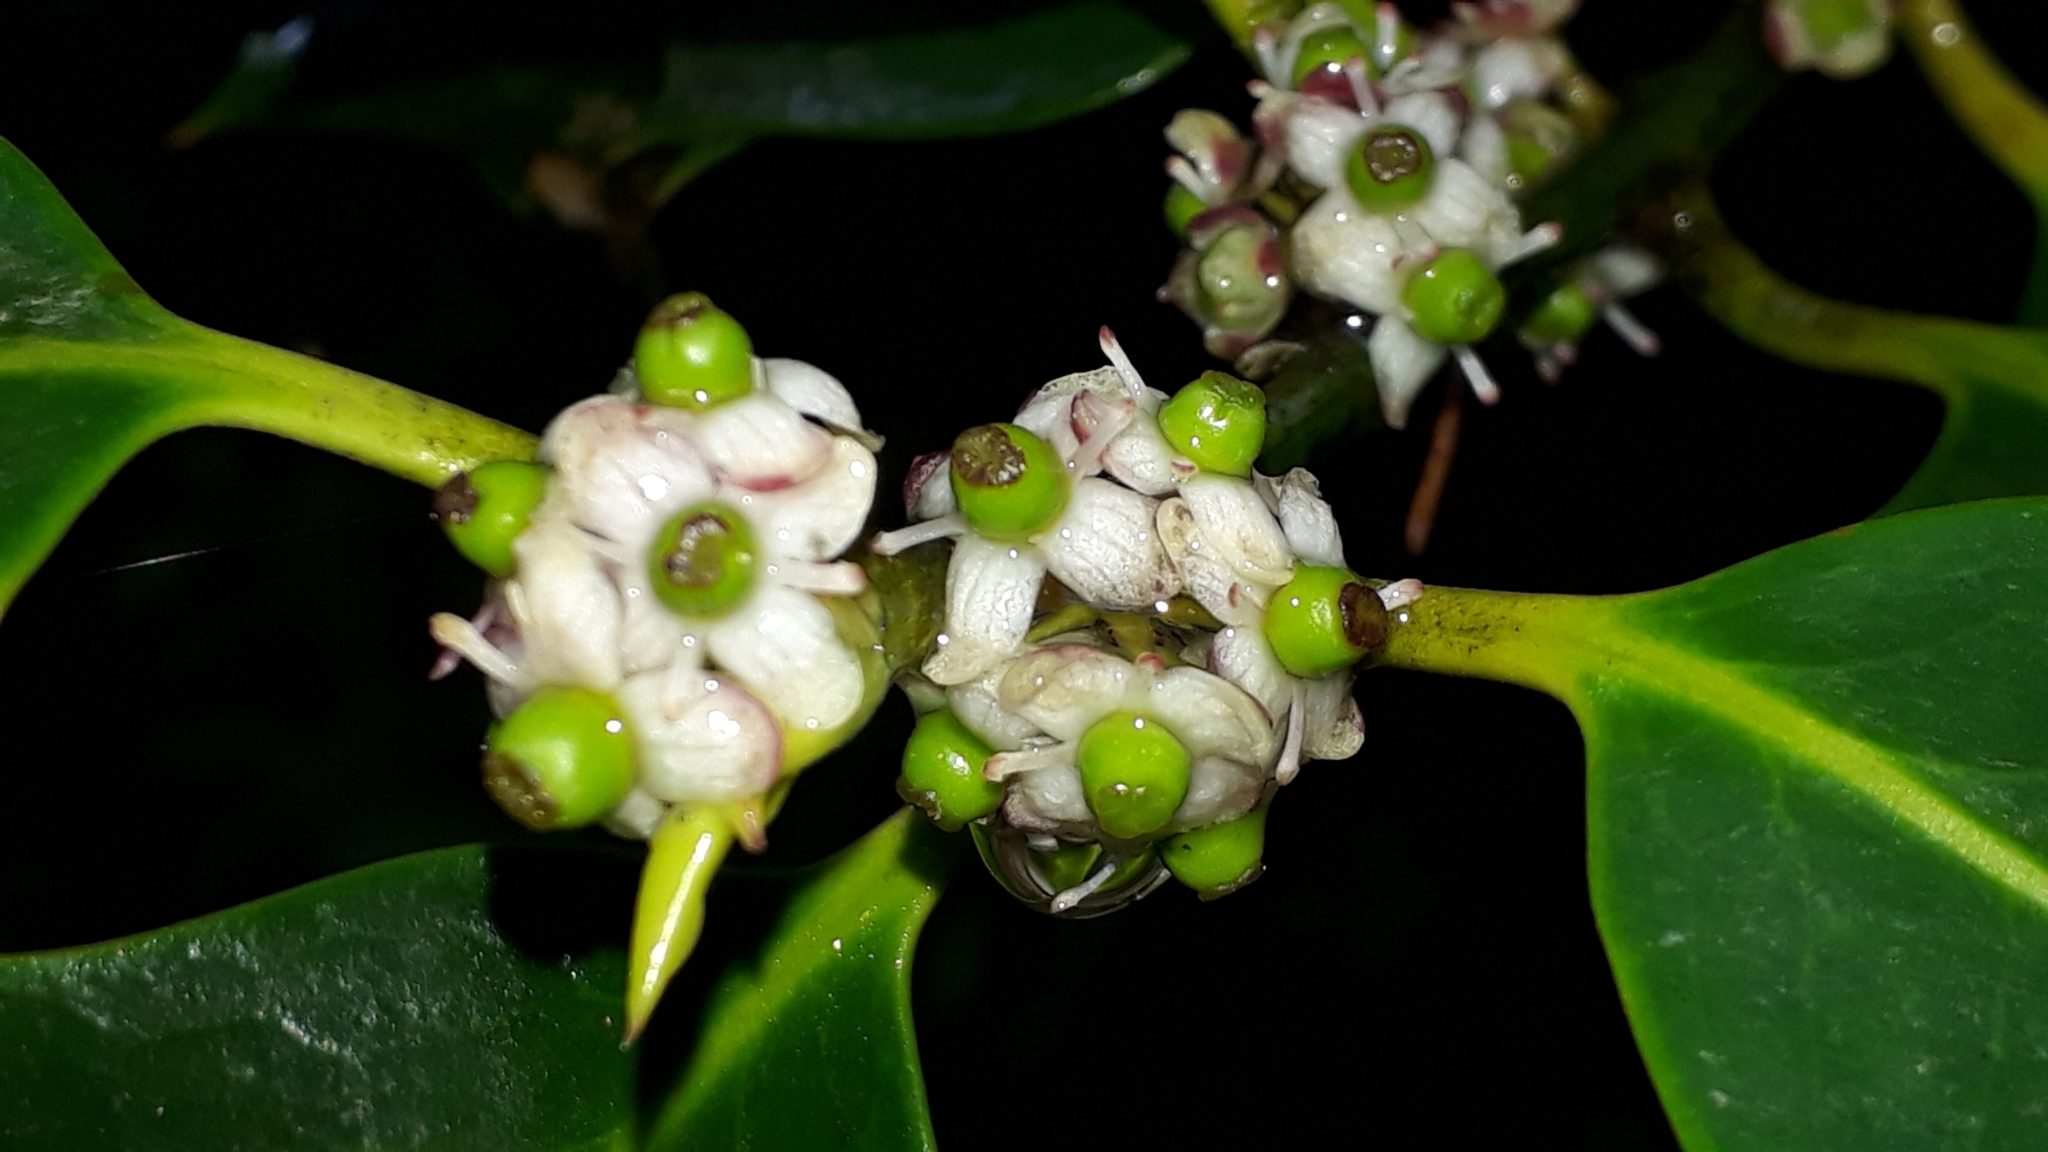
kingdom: Plantae
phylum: Tracheophyta
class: Magnoliopsida
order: Aquifoliales
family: Aquifoliaceae
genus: Ilex
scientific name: Ilex aquifolium
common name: English holly
